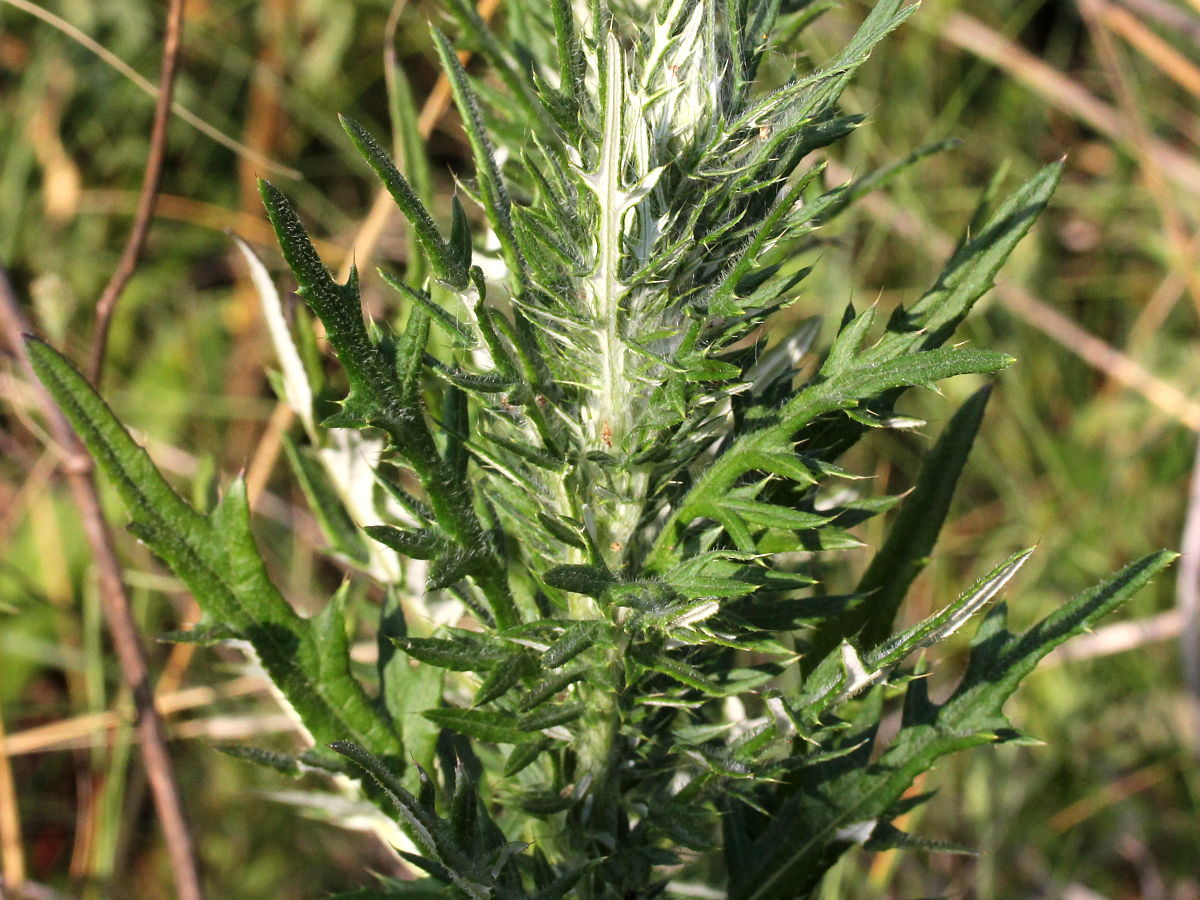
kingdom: Plantae
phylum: Tracheophyta
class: Magnoliopsida
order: Asterales
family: Asteraceae
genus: Cirsium
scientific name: Cirsium discolor
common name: Field thistle
